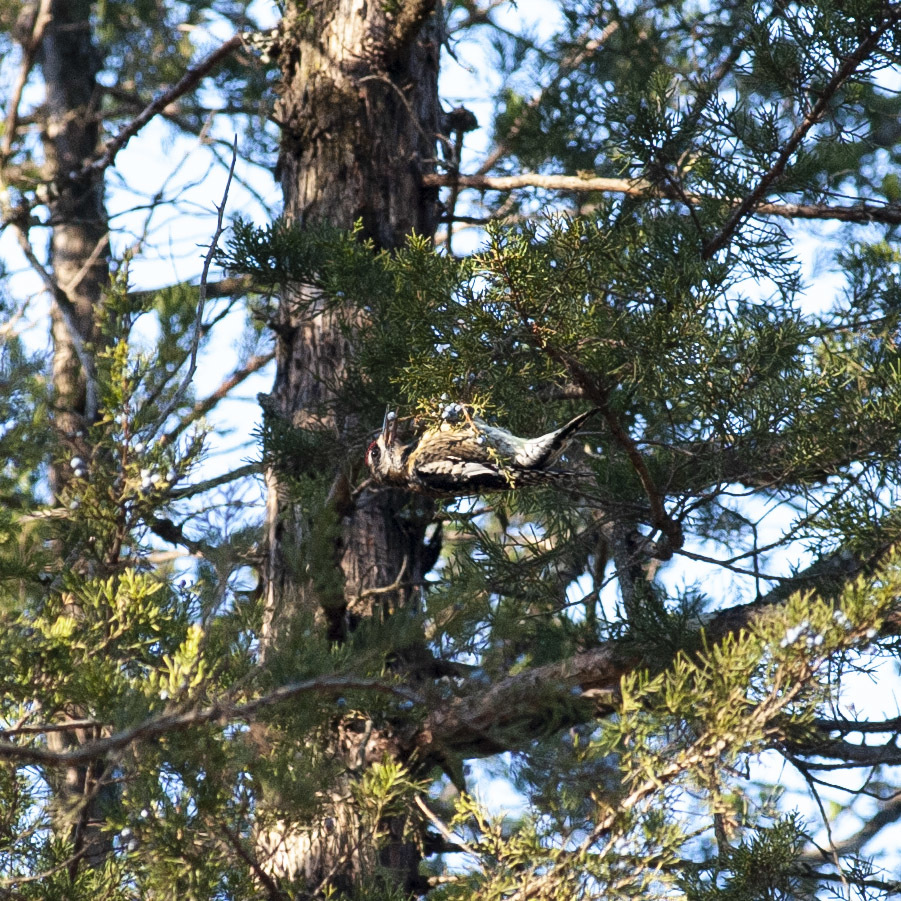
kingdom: Animalia
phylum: Chordata
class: Aves
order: Piciformes
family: Picidae
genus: Sphyrapicus
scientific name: Sphyrapicus varius
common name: Yellow-bellied sapsucker
